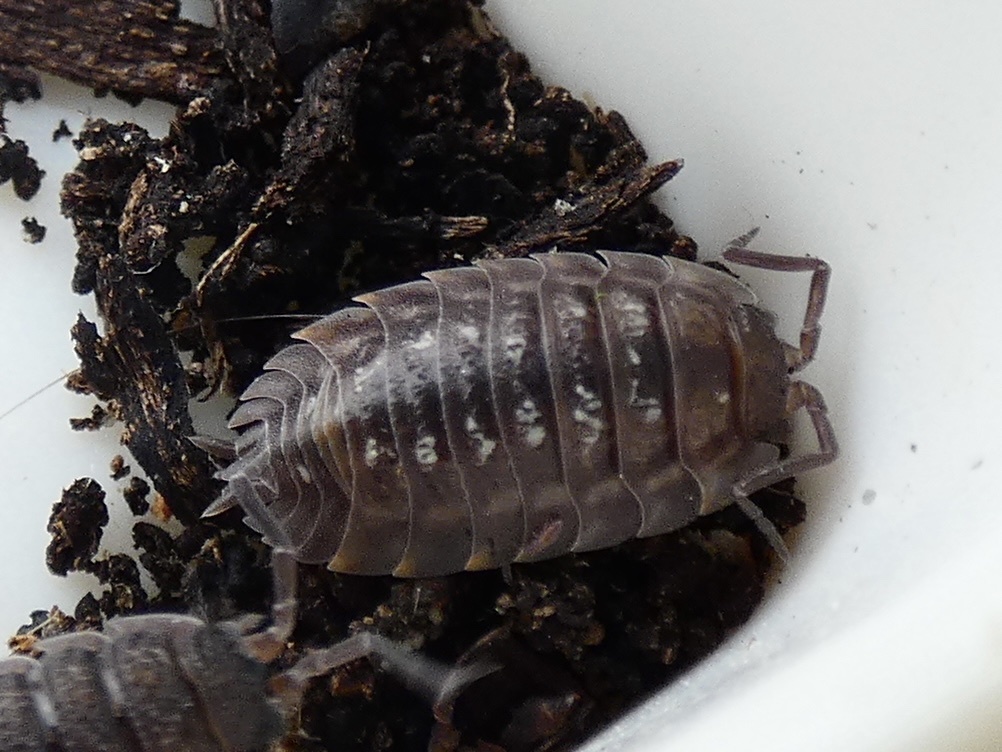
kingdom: Animalia
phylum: Arthropoda
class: Malacostraca
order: Isopoda
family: Oniscidae
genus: Oniscus
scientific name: Oniscus asellus
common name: Common shiny woodlouse
